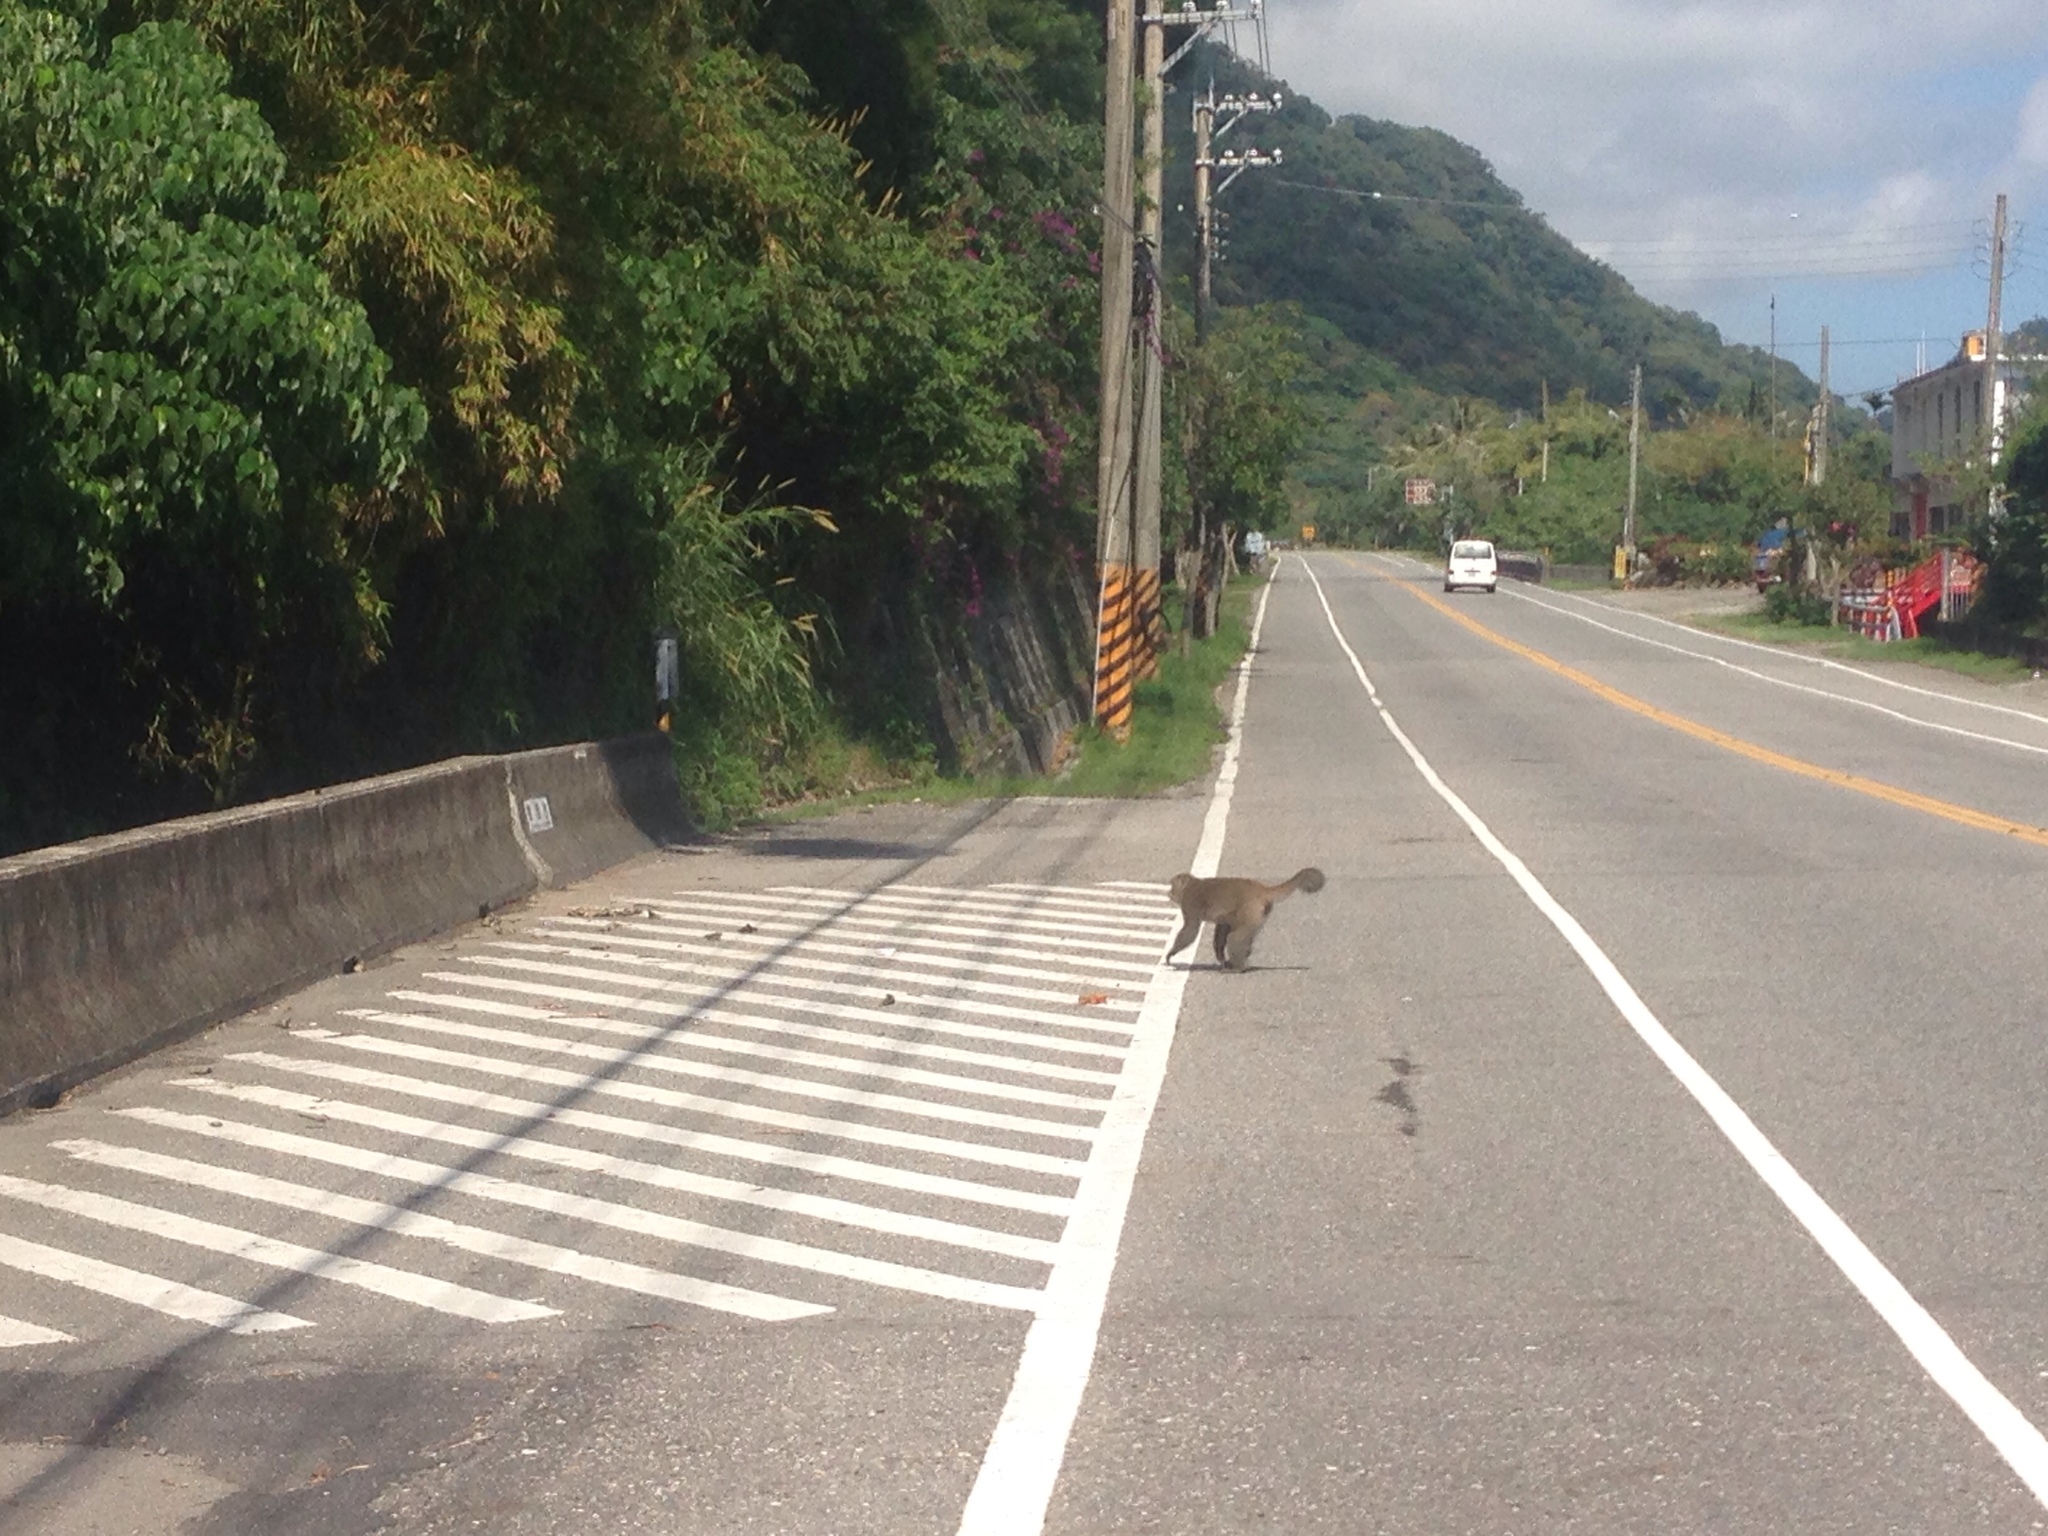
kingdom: Animalia
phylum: Chordata
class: Mammalia
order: Primates
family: Cercopithecidae
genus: Macaca
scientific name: Macaca cyclopis
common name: Formosan rock macaque
